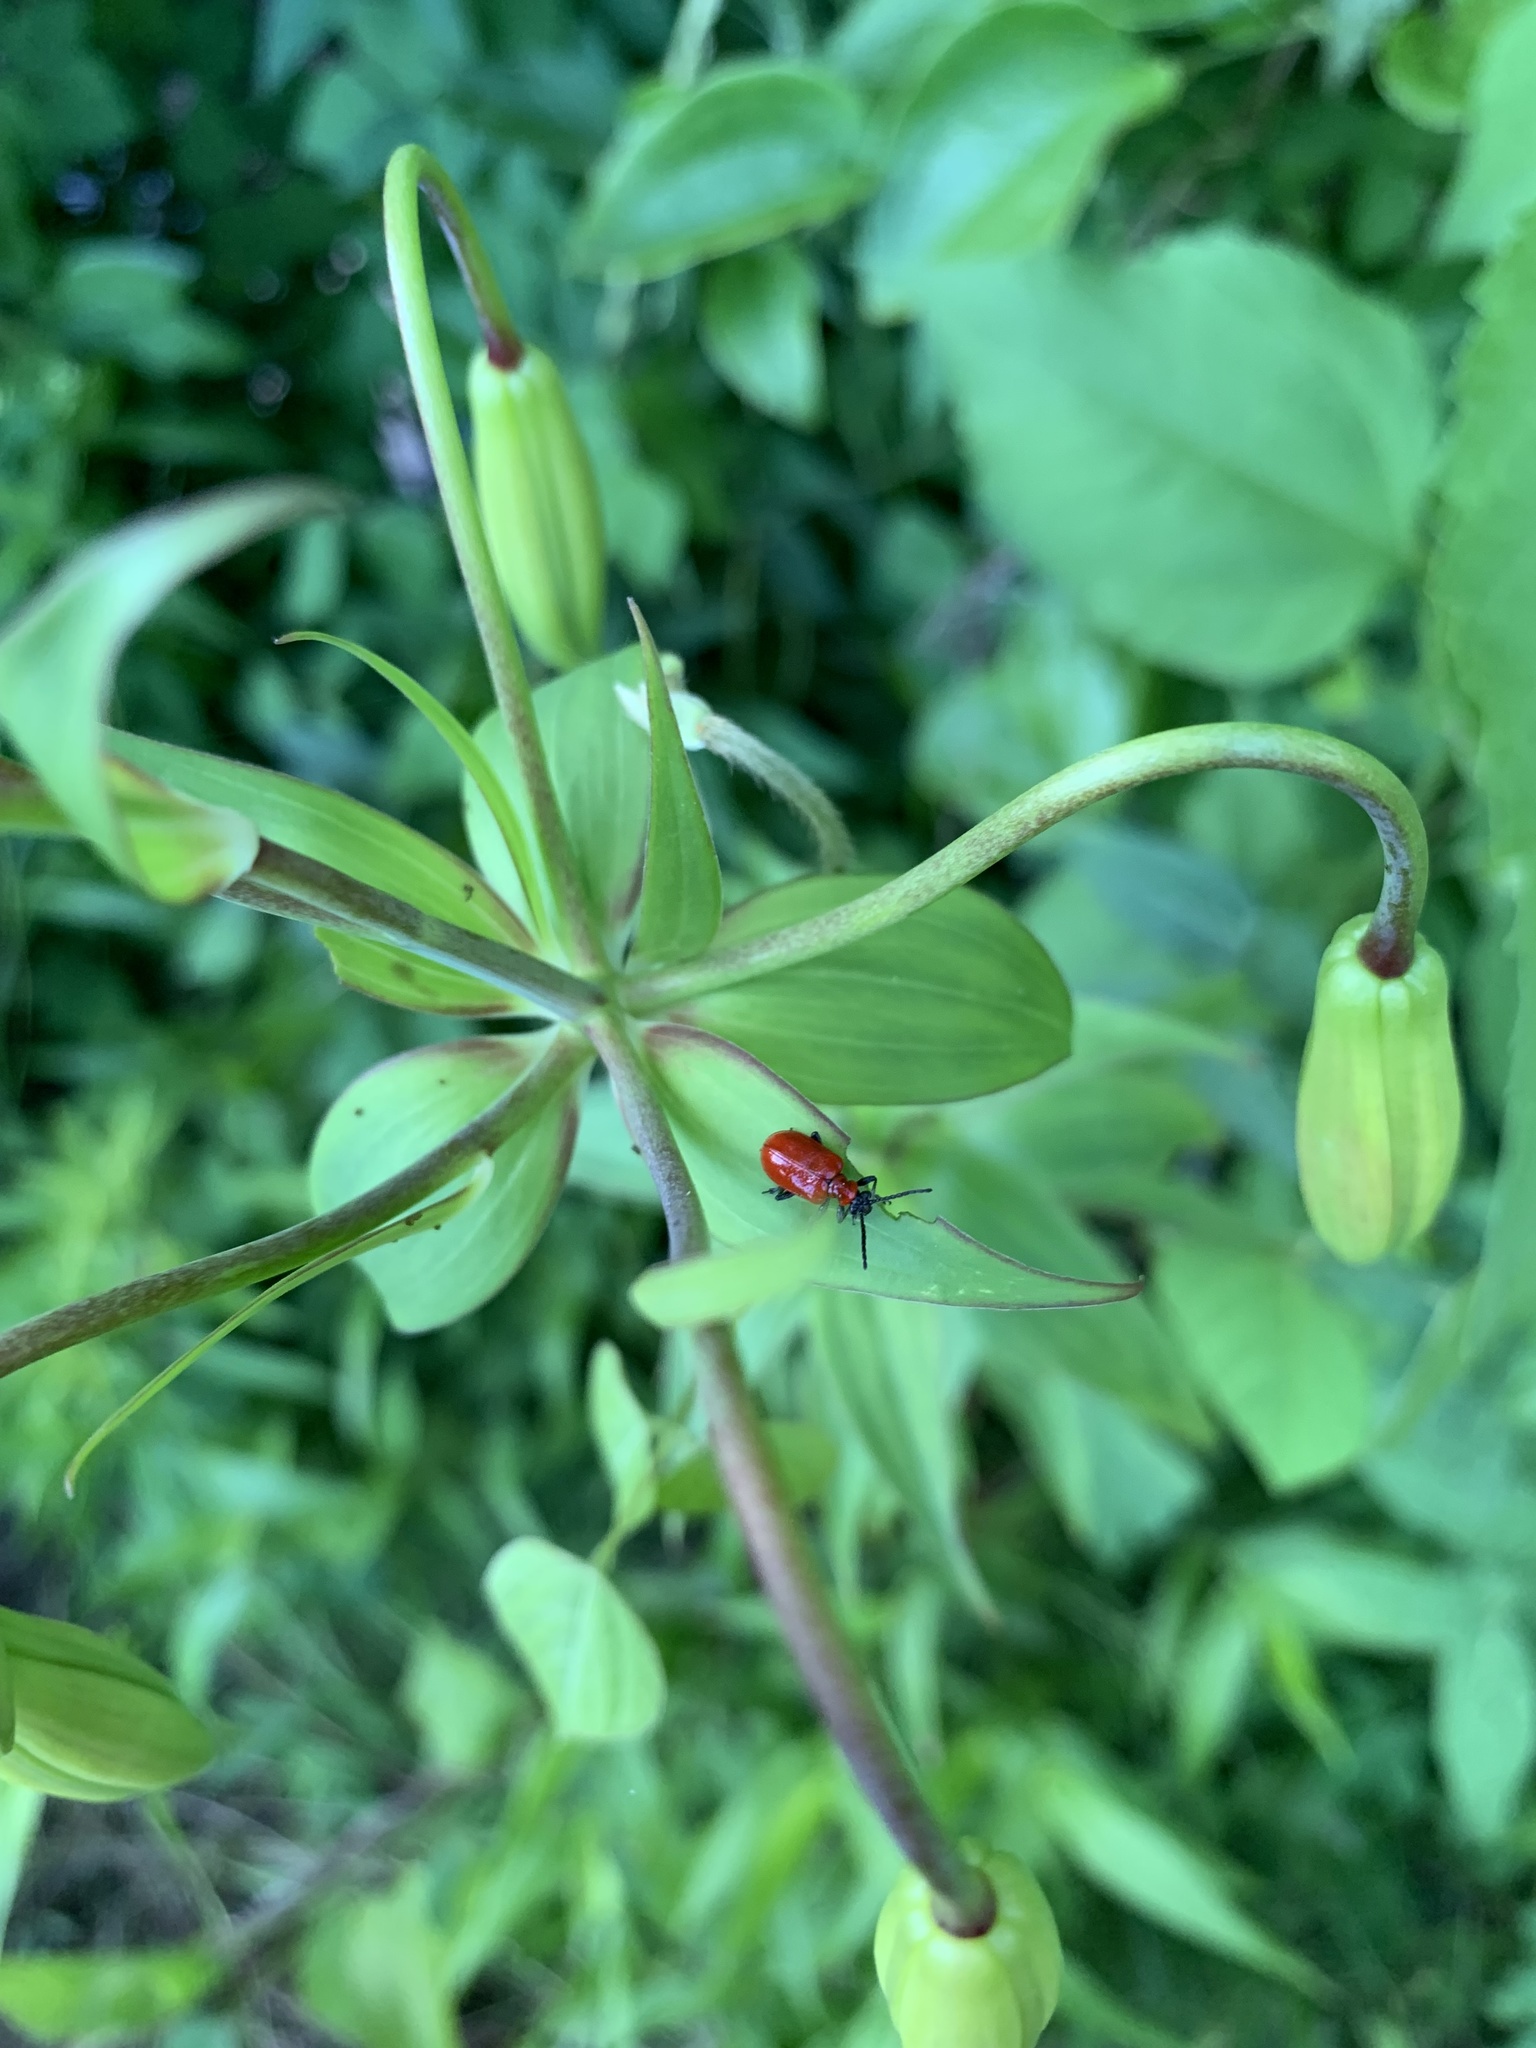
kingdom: Animalia
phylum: Arthropoda
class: Insecta
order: Coleoptera
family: Chrysomelidae
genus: Lilioceris
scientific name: Lilioceris lilii
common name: Lily beetle
